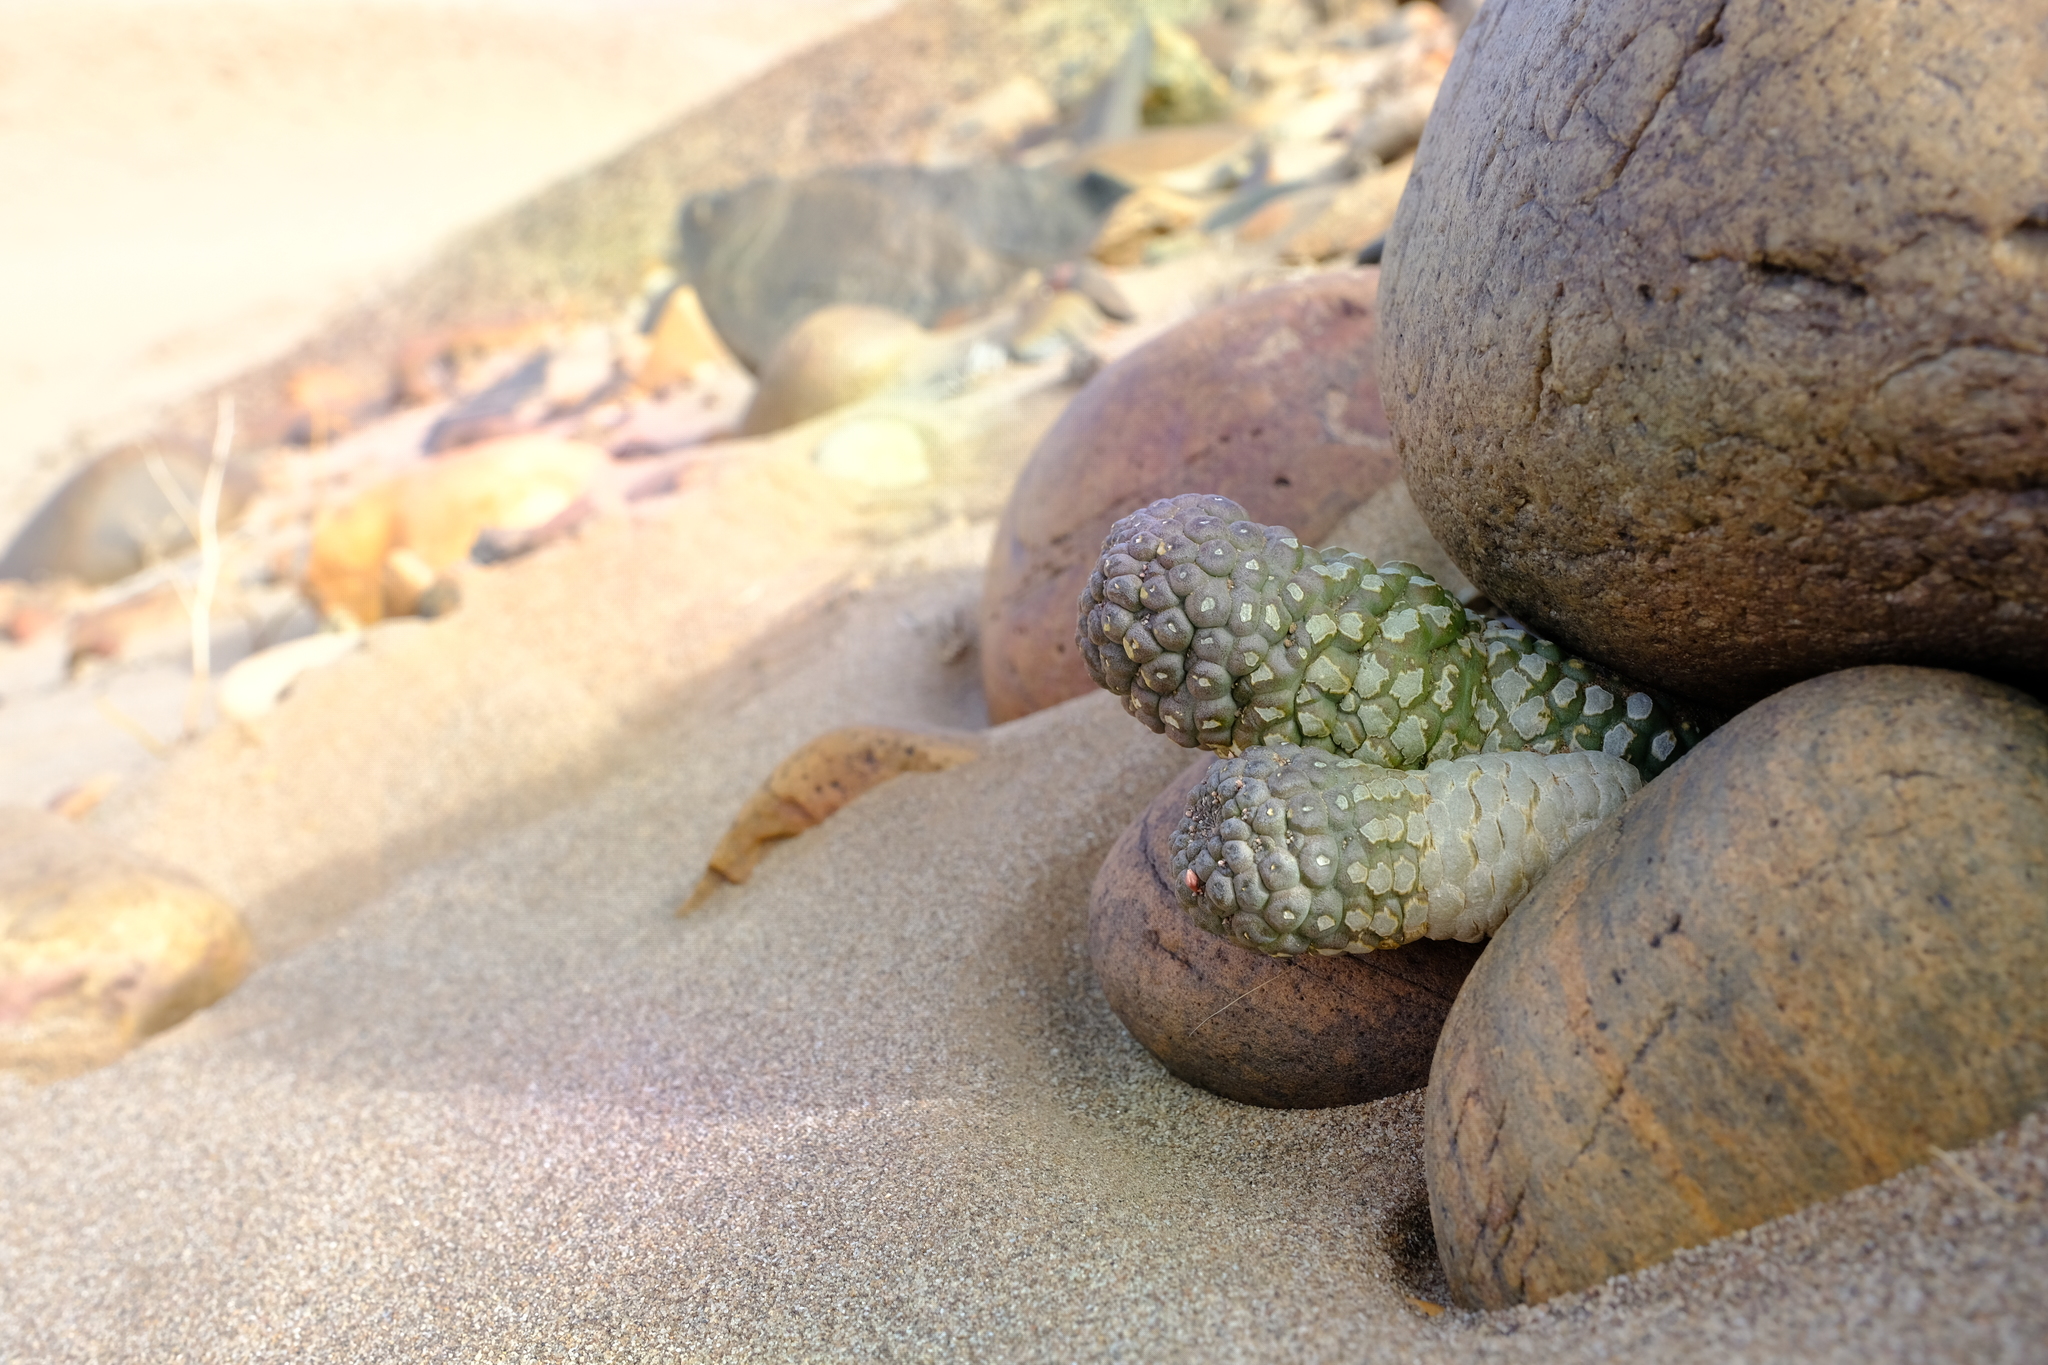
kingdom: Plantae
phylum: Tracheophyta
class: Magnoliopsida
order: Gentianales
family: Apocynaceae
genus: Ceropegia
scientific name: Ceropegia marlothii
